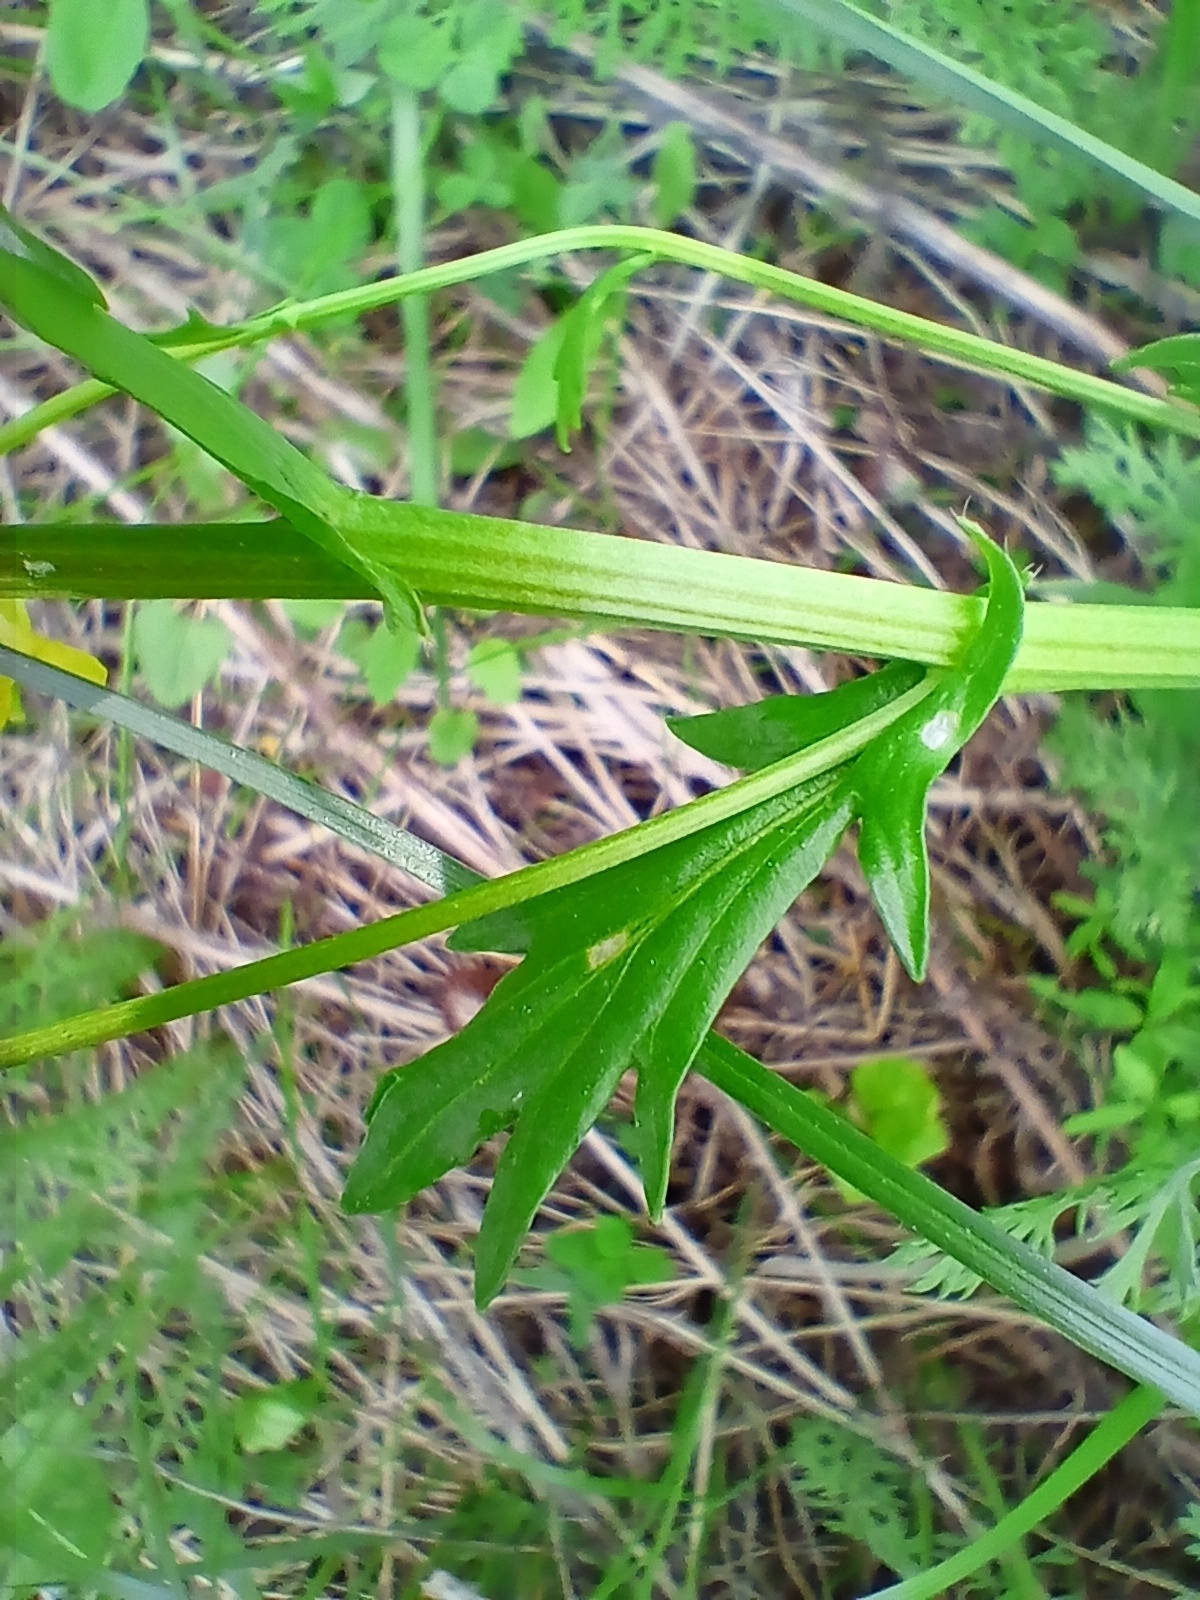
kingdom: Plantae
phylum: Tracheophyta
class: Magnoliopsida
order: Brassicales
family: Brassicaceae
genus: Barbarea
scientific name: Barbarea vulgaris
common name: Cressy-greens
